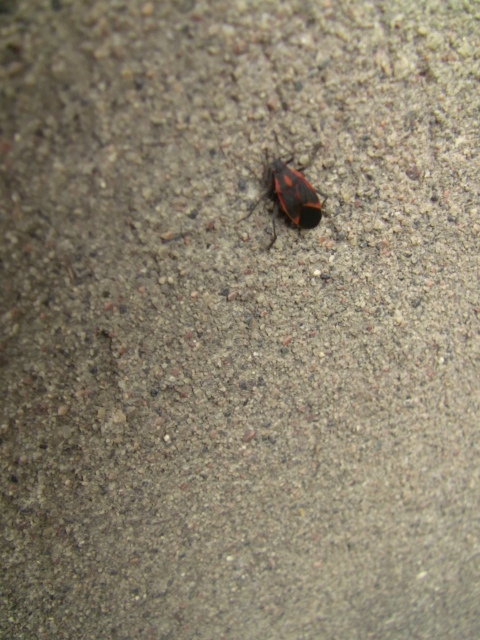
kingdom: Animalia
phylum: Arthropoda
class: Insecta
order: Hemiptera
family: Rhopalidae
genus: Boisea
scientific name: Boisea trivittata
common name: Boxelder bug
